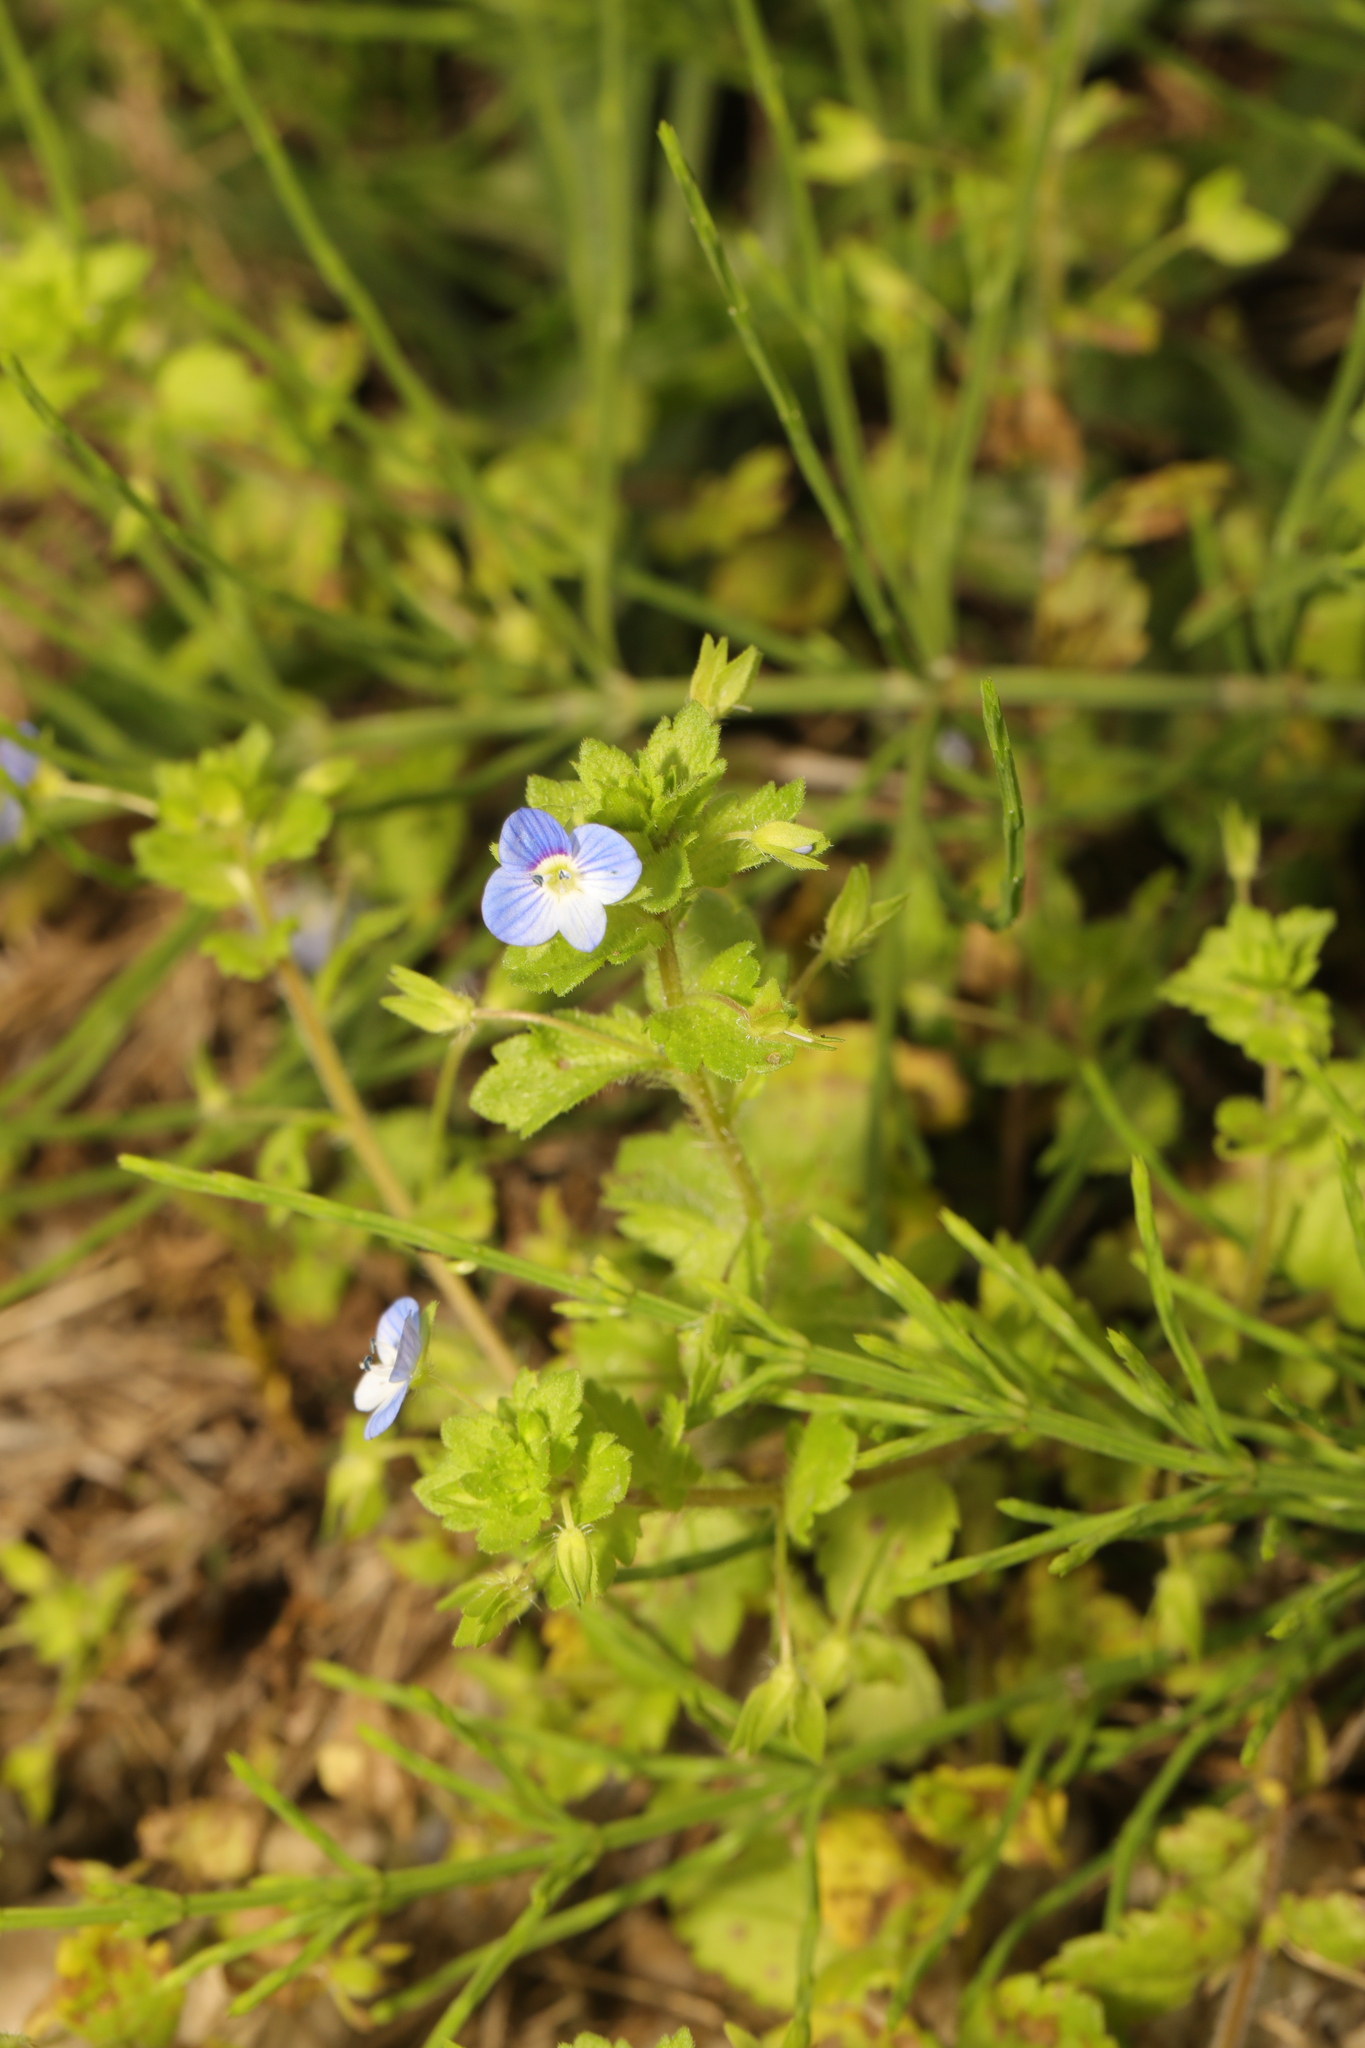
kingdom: Plantae
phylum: Tracheophyta
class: Magnoliopsida
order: Lamiales
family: Plantaginaceae
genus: Veronica
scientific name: Veronica persica
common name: Common field-speedwell
